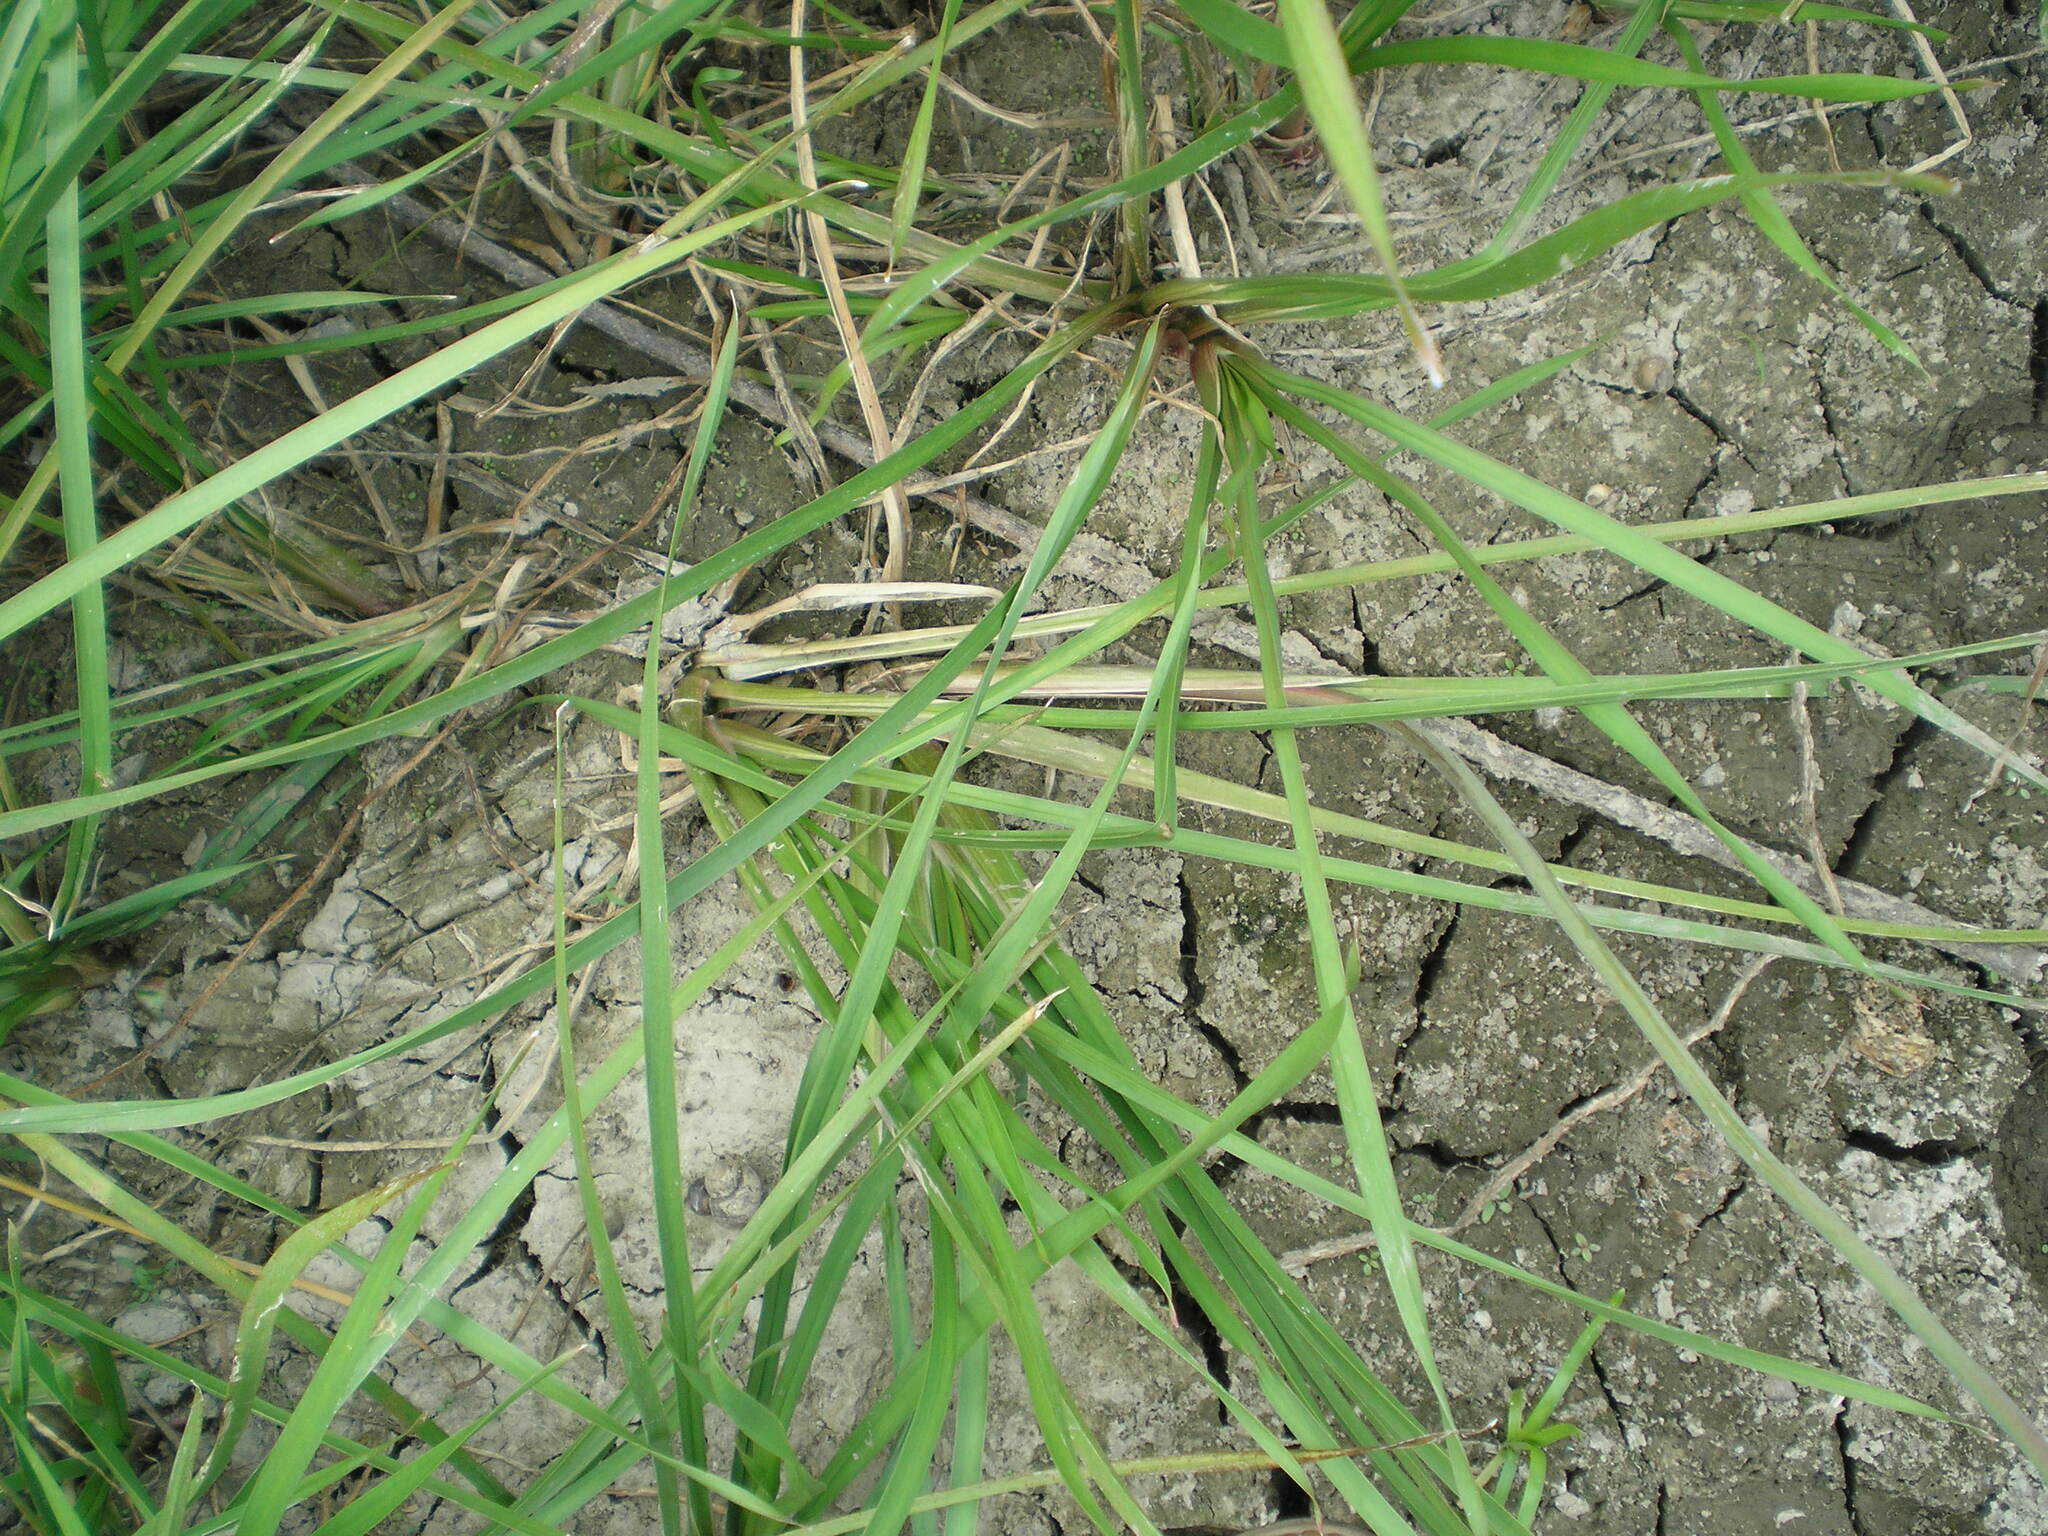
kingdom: Plantae
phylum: Tracheophyta
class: Liliopsida
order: Alismatales
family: Butomaceae
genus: Butomus
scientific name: Butomus umbellatus
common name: Flowering-rush
